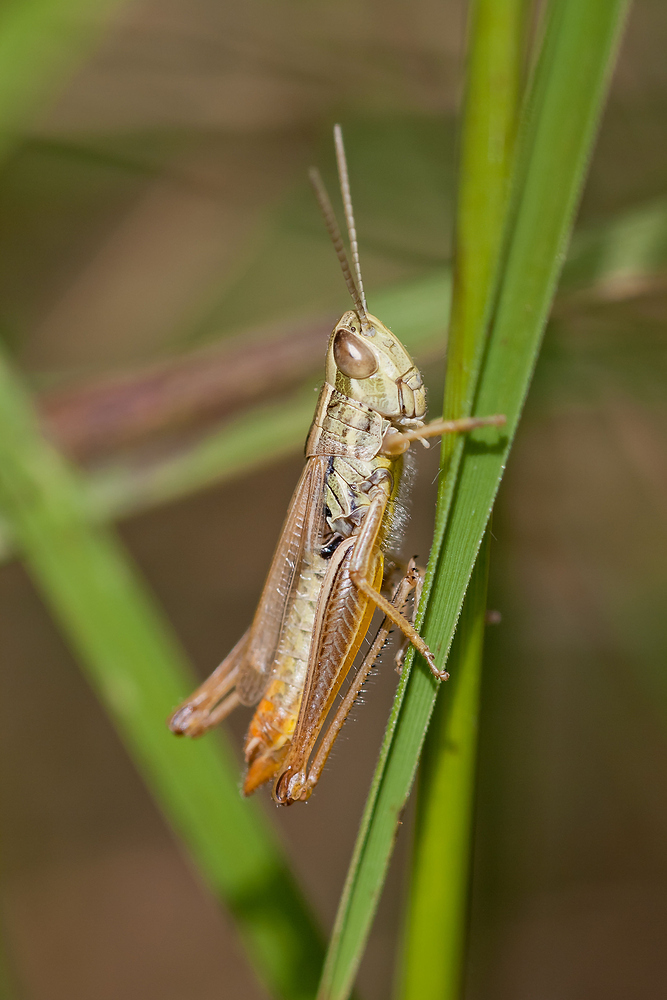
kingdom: Animalia
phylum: Arthropoda
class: Insecta
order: Orthoptera
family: Acrididae
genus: Euchorthippus
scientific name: Euchorthippus declivus
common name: Common straw grasshopper
